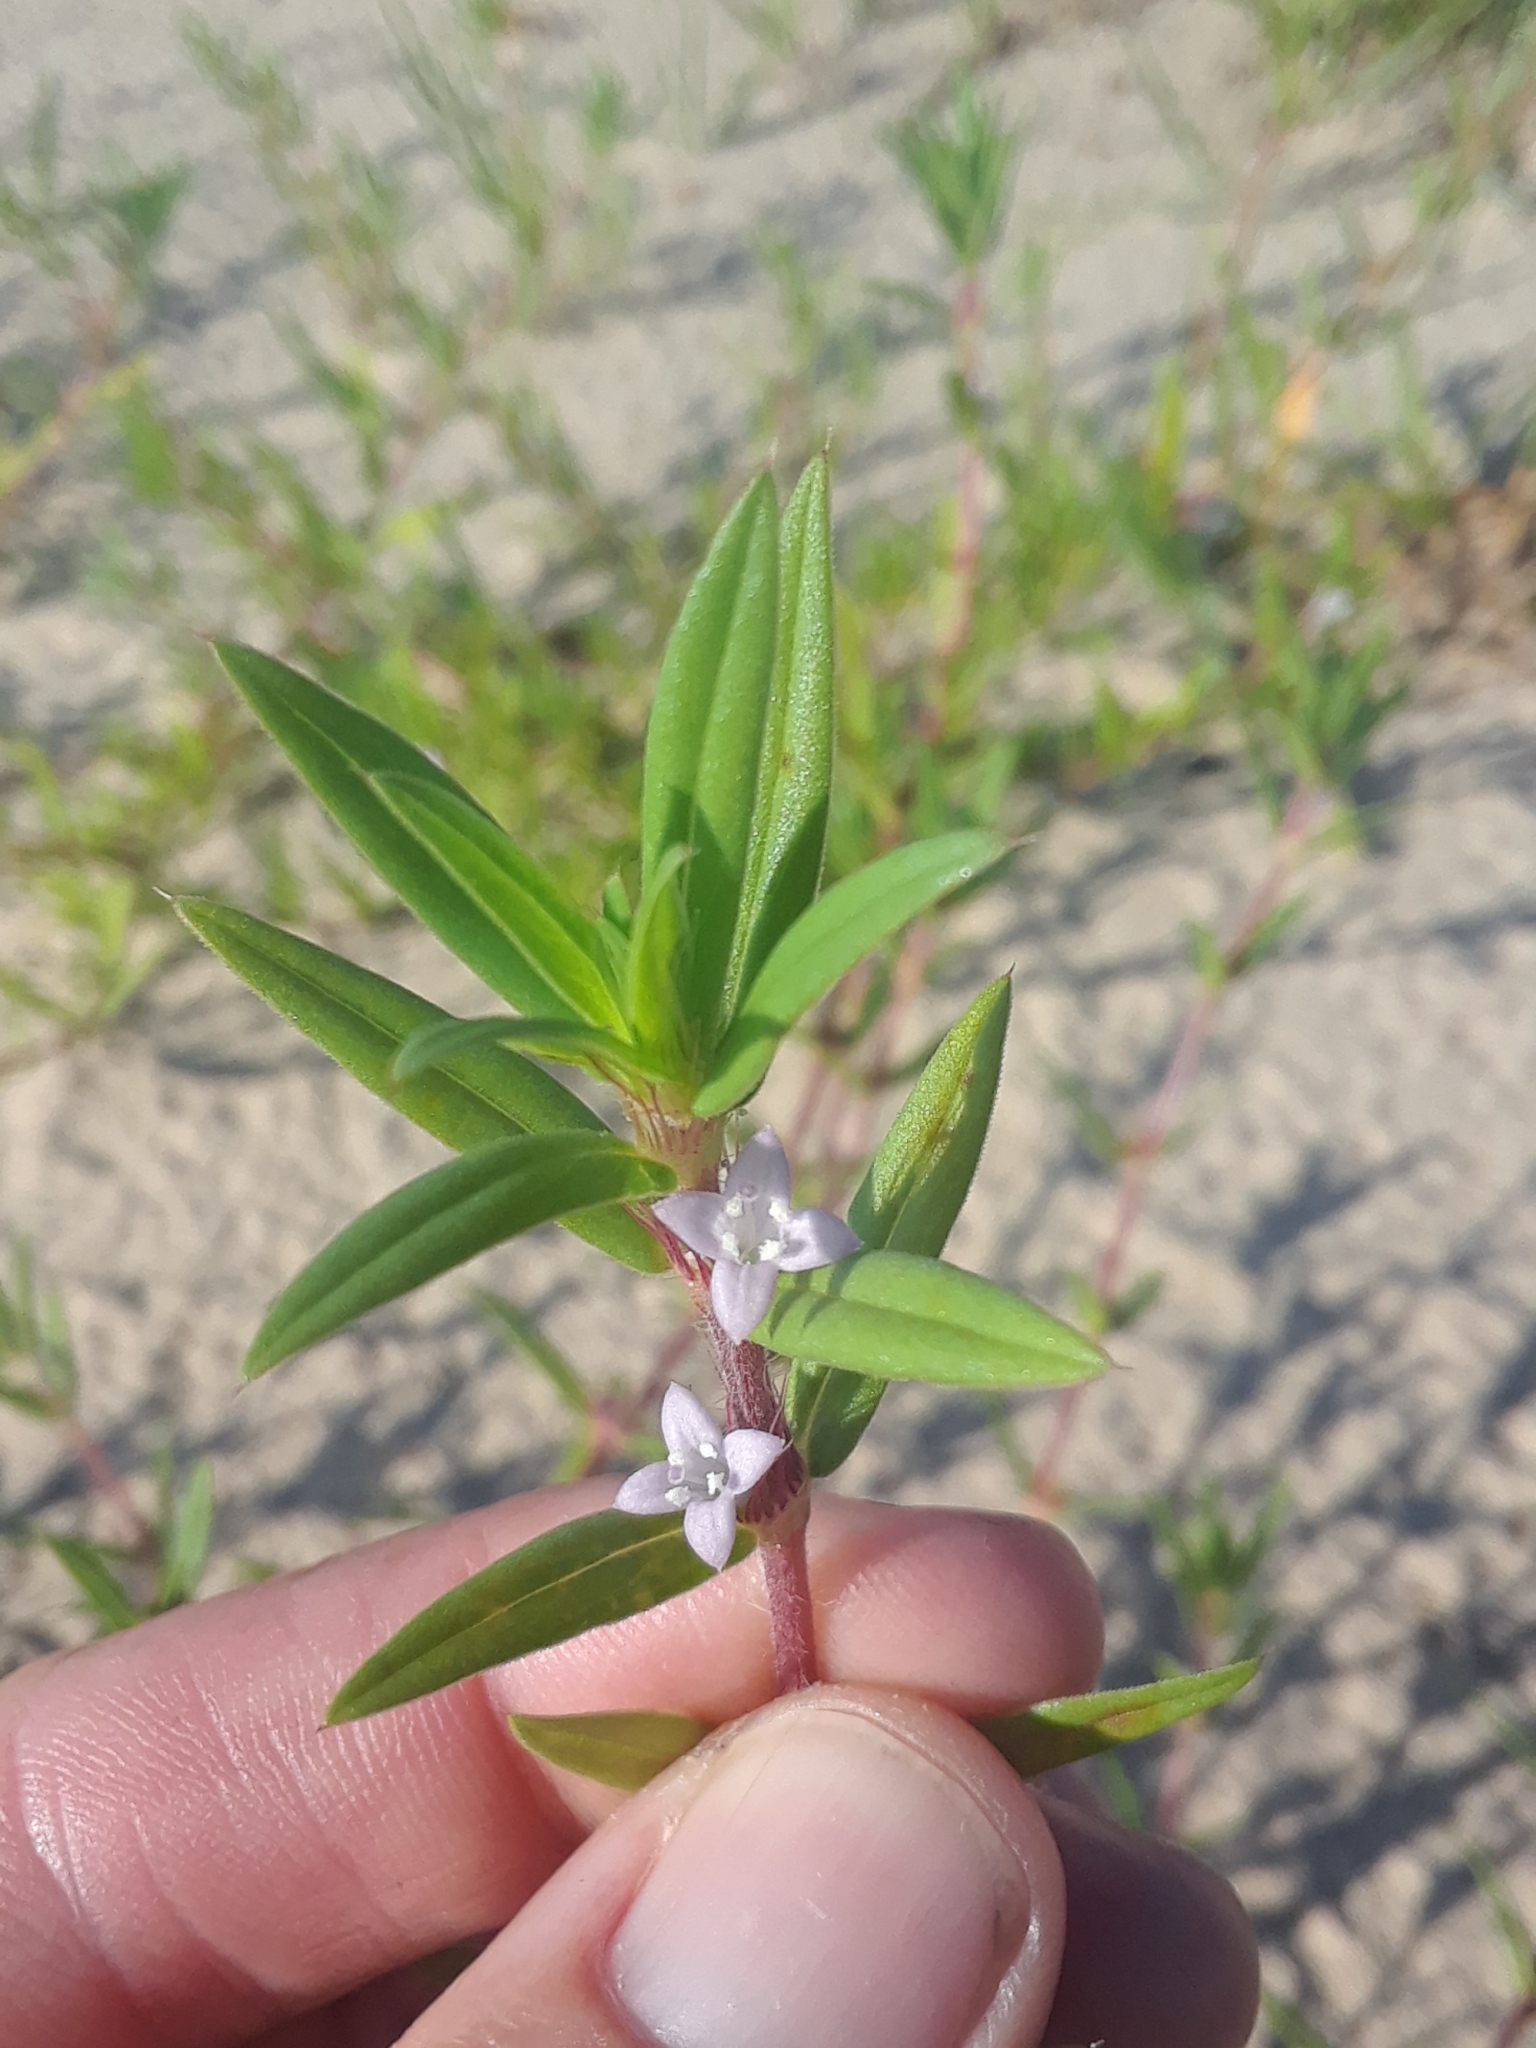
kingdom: Plantae
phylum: Tracheophyta
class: Magnoliopsida
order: Gentianales
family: Rubiaceae
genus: Hexasepalum
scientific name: Hexasepalum teres
